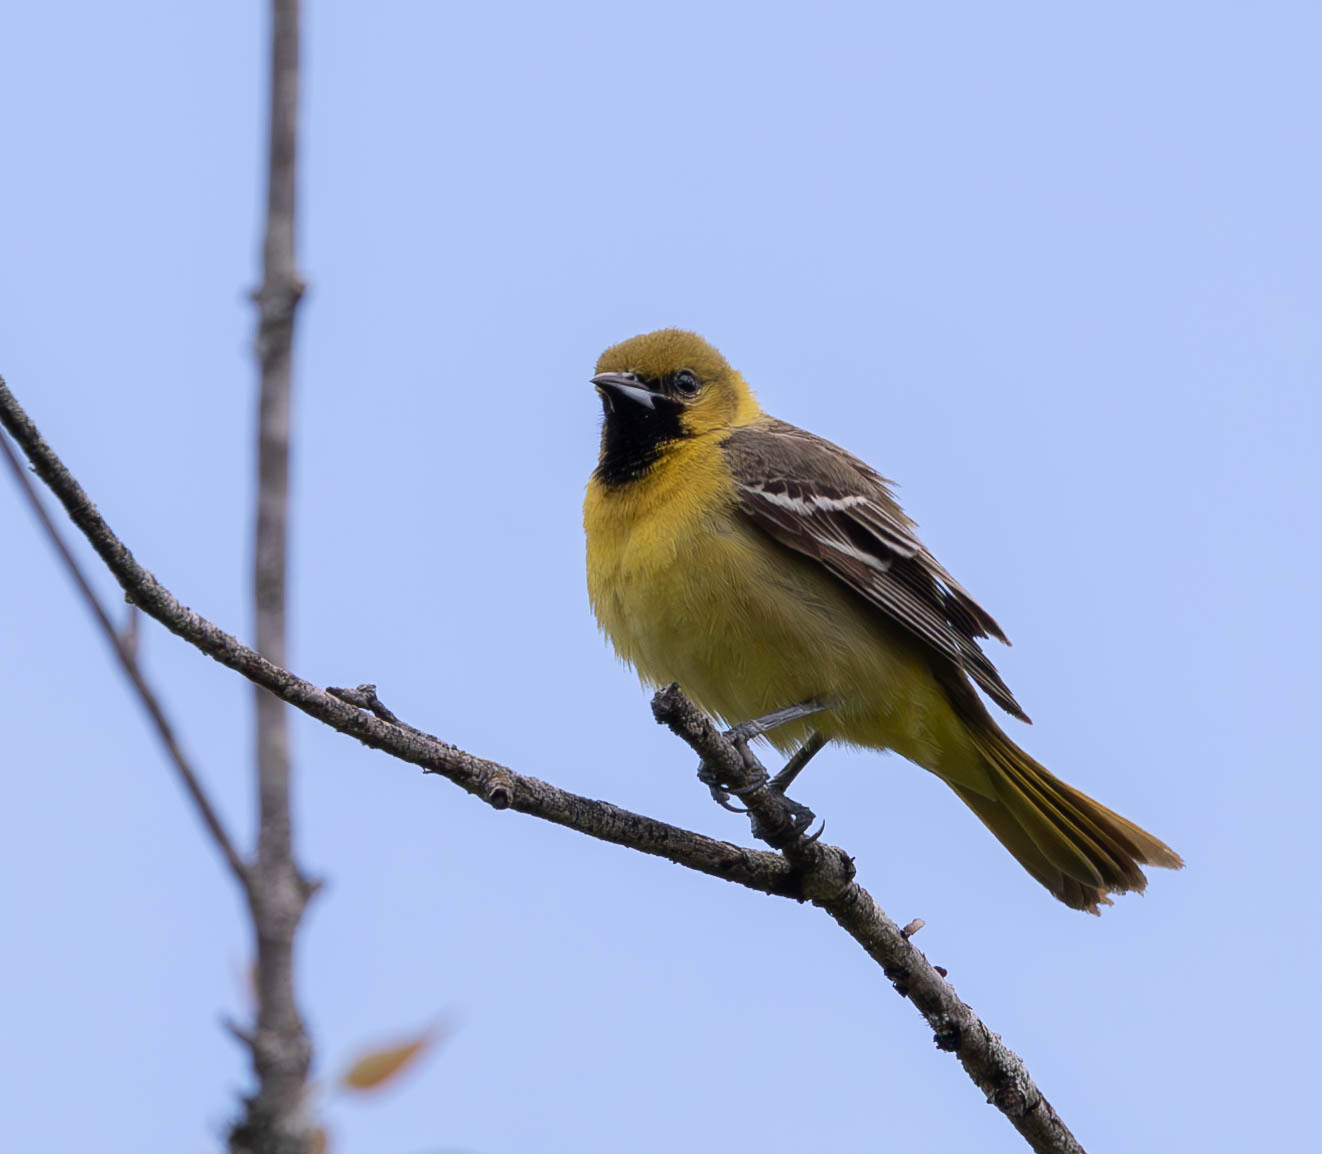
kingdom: Animalia
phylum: Chordata
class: Aves
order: Passeriformes
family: Icteridae
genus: Icterus
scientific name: Icterus spurius
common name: Orchard oriole
